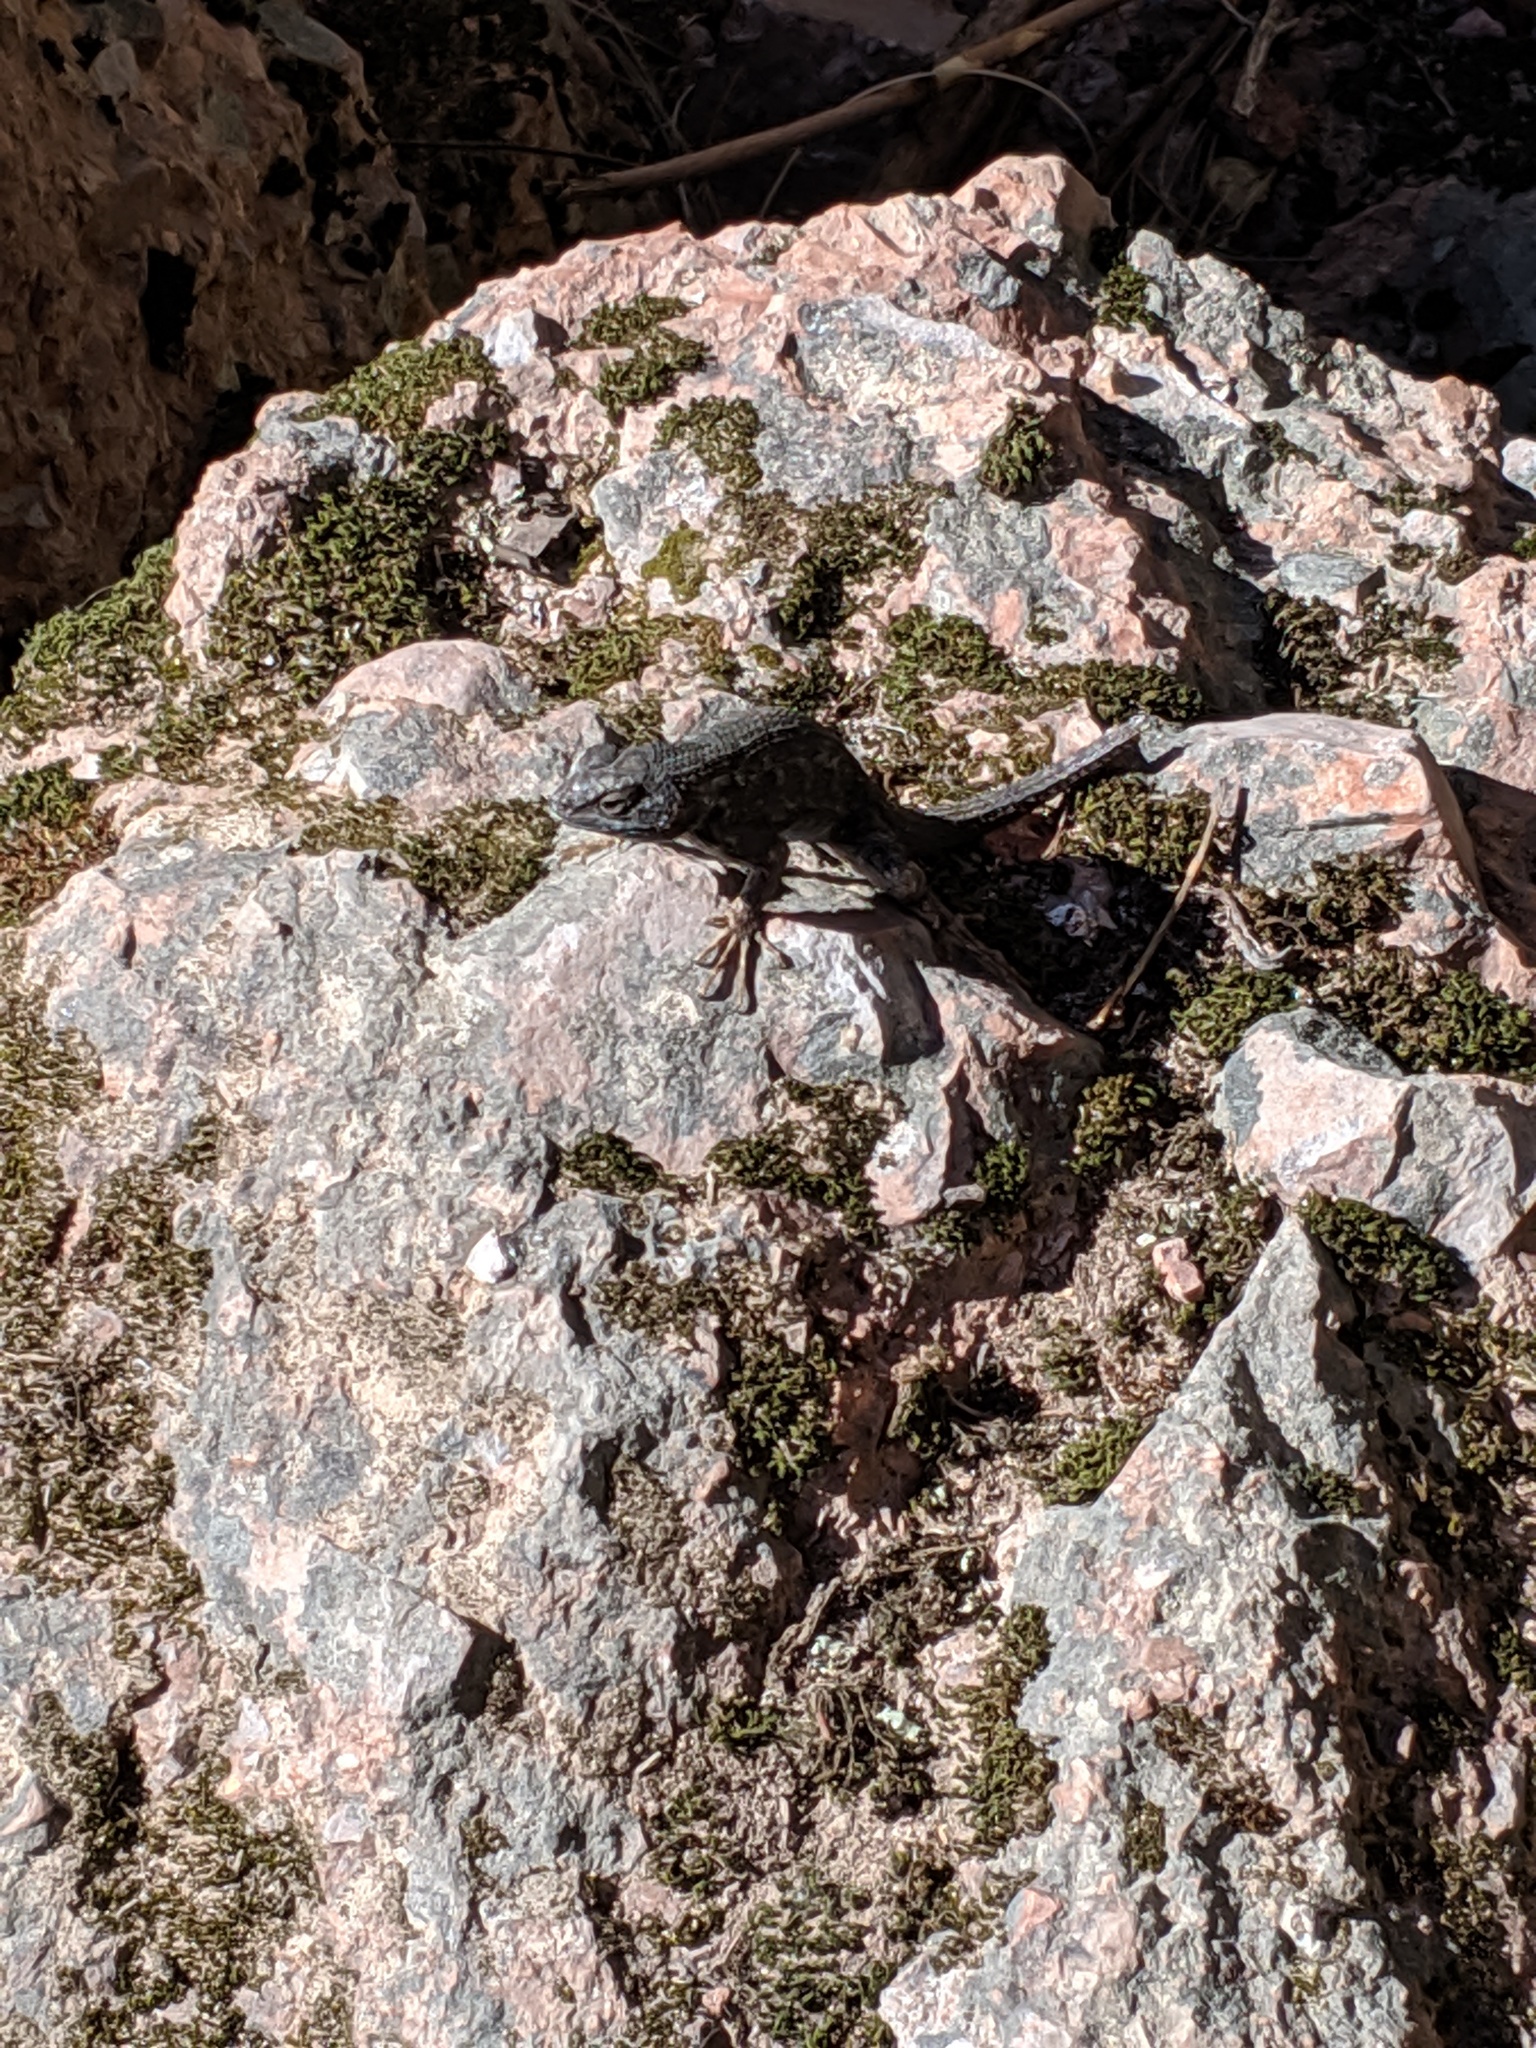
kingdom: Animalia
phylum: Chordata
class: Squamata
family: Phrynosomatidae
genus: Sceloporus
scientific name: Sceloporus occidentalis
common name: Western fence lizard
